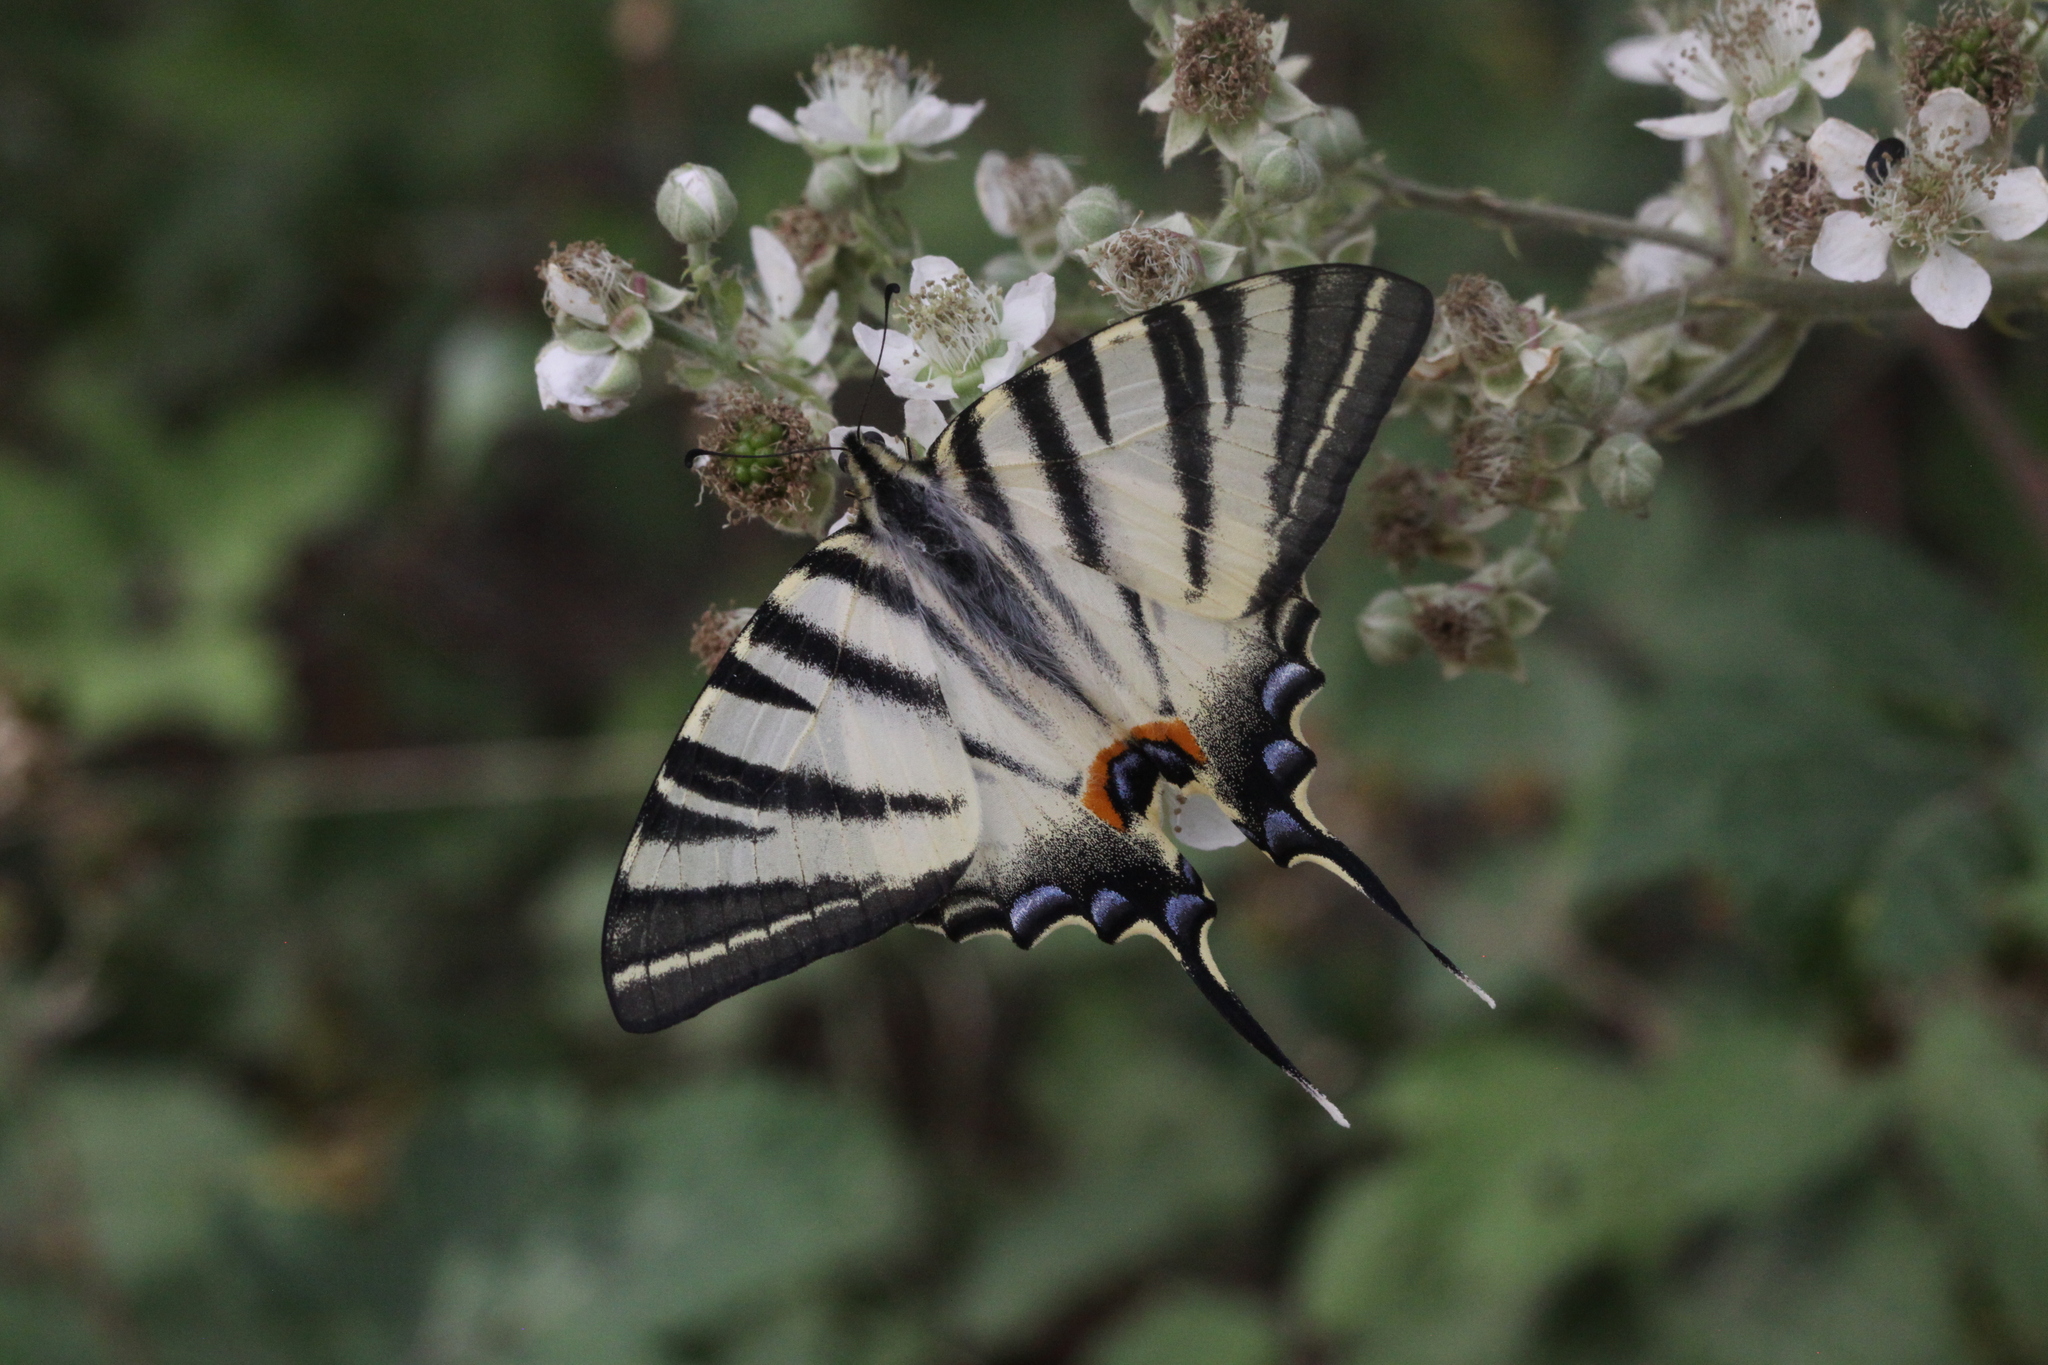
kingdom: Animalia
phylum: Arthropoda
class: Insecta
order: Lepidoptera
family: Papilionidae
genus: Iphiclides
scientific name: Iphiclides podalirius
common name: Scarce swallowtail
